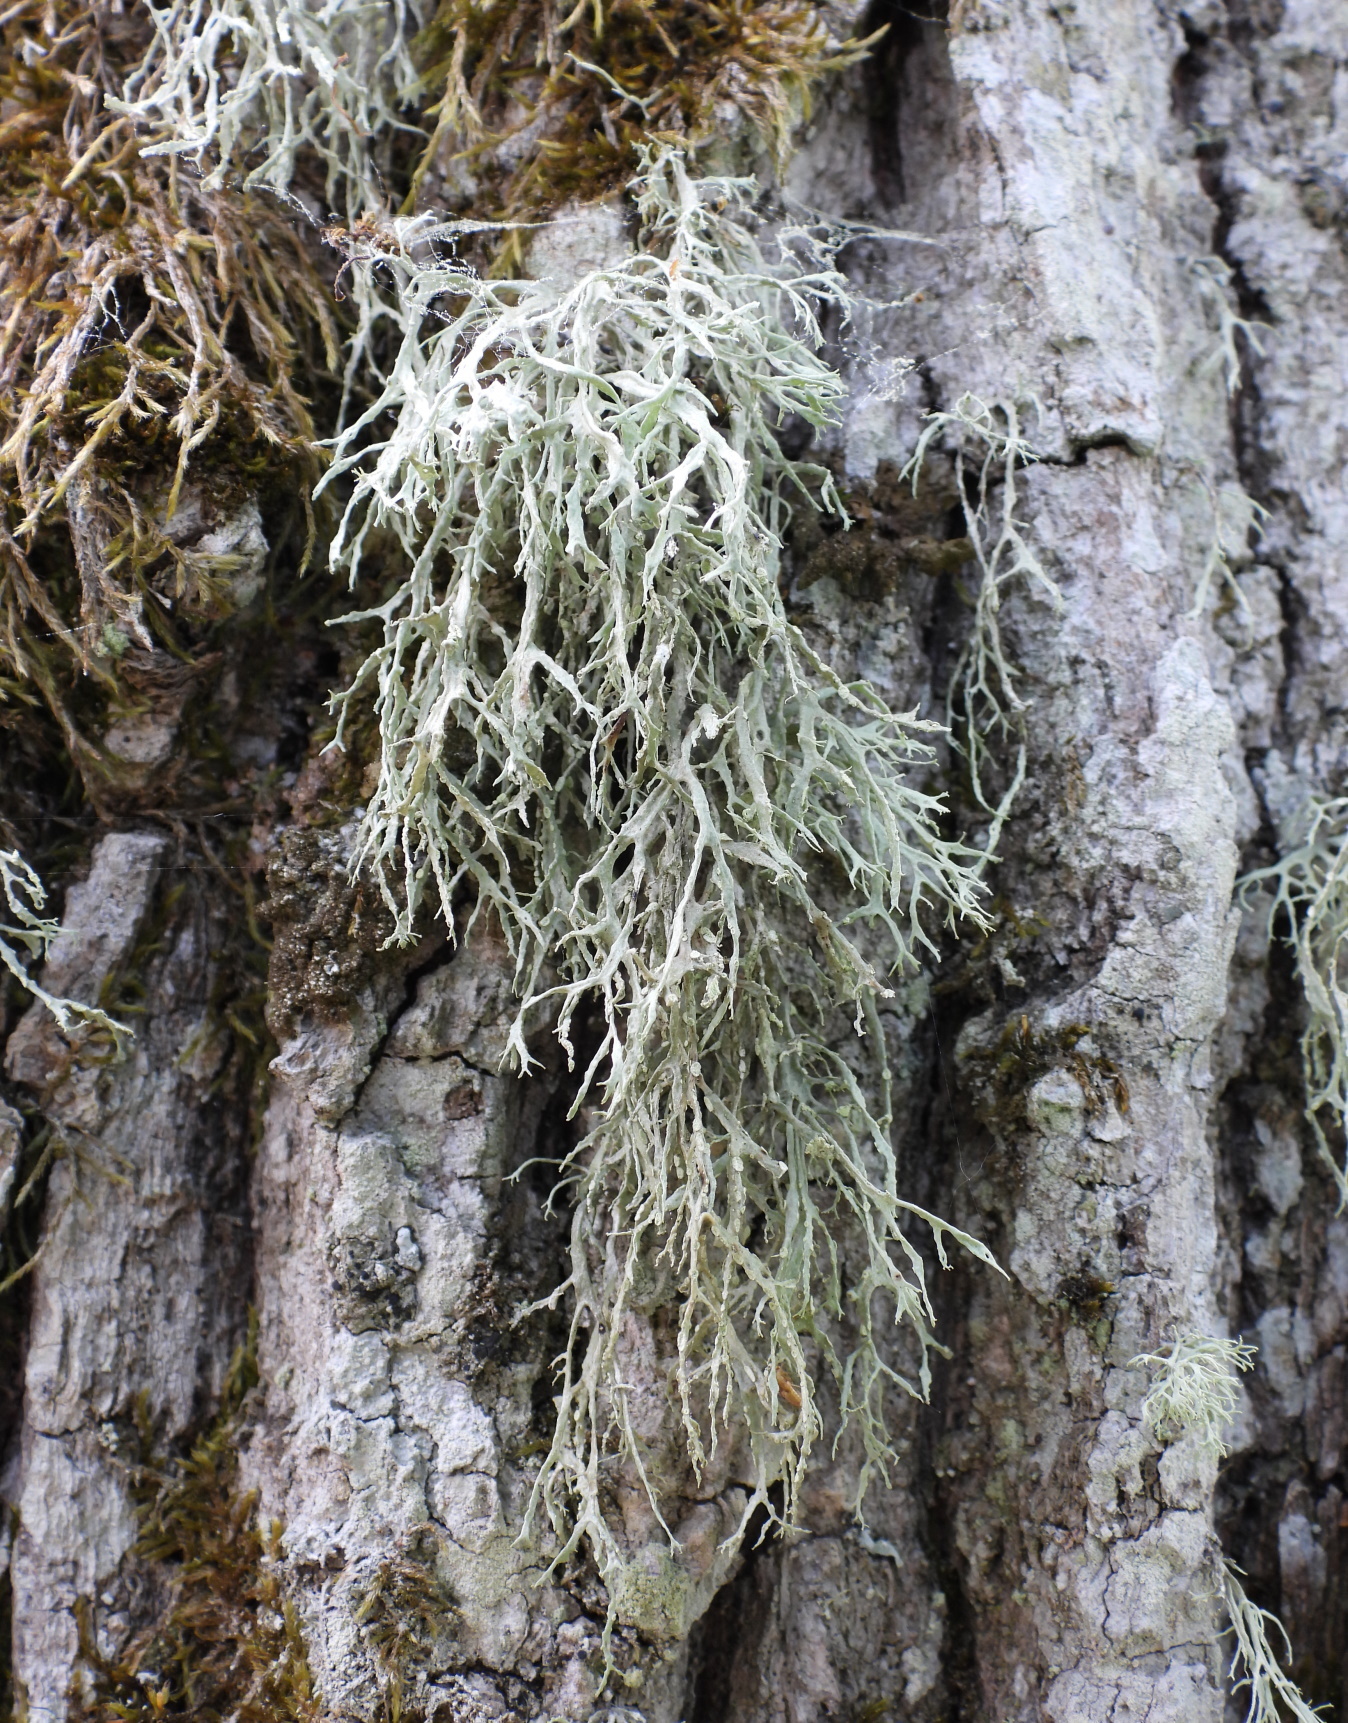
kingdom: Fungi
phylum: Ascomycota
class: Lecanoromycetes
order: Lecanorales
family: Ramalinaceae
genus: Ramalina
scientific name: Ramalina farinacea
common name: Farinose cartilage lichen
